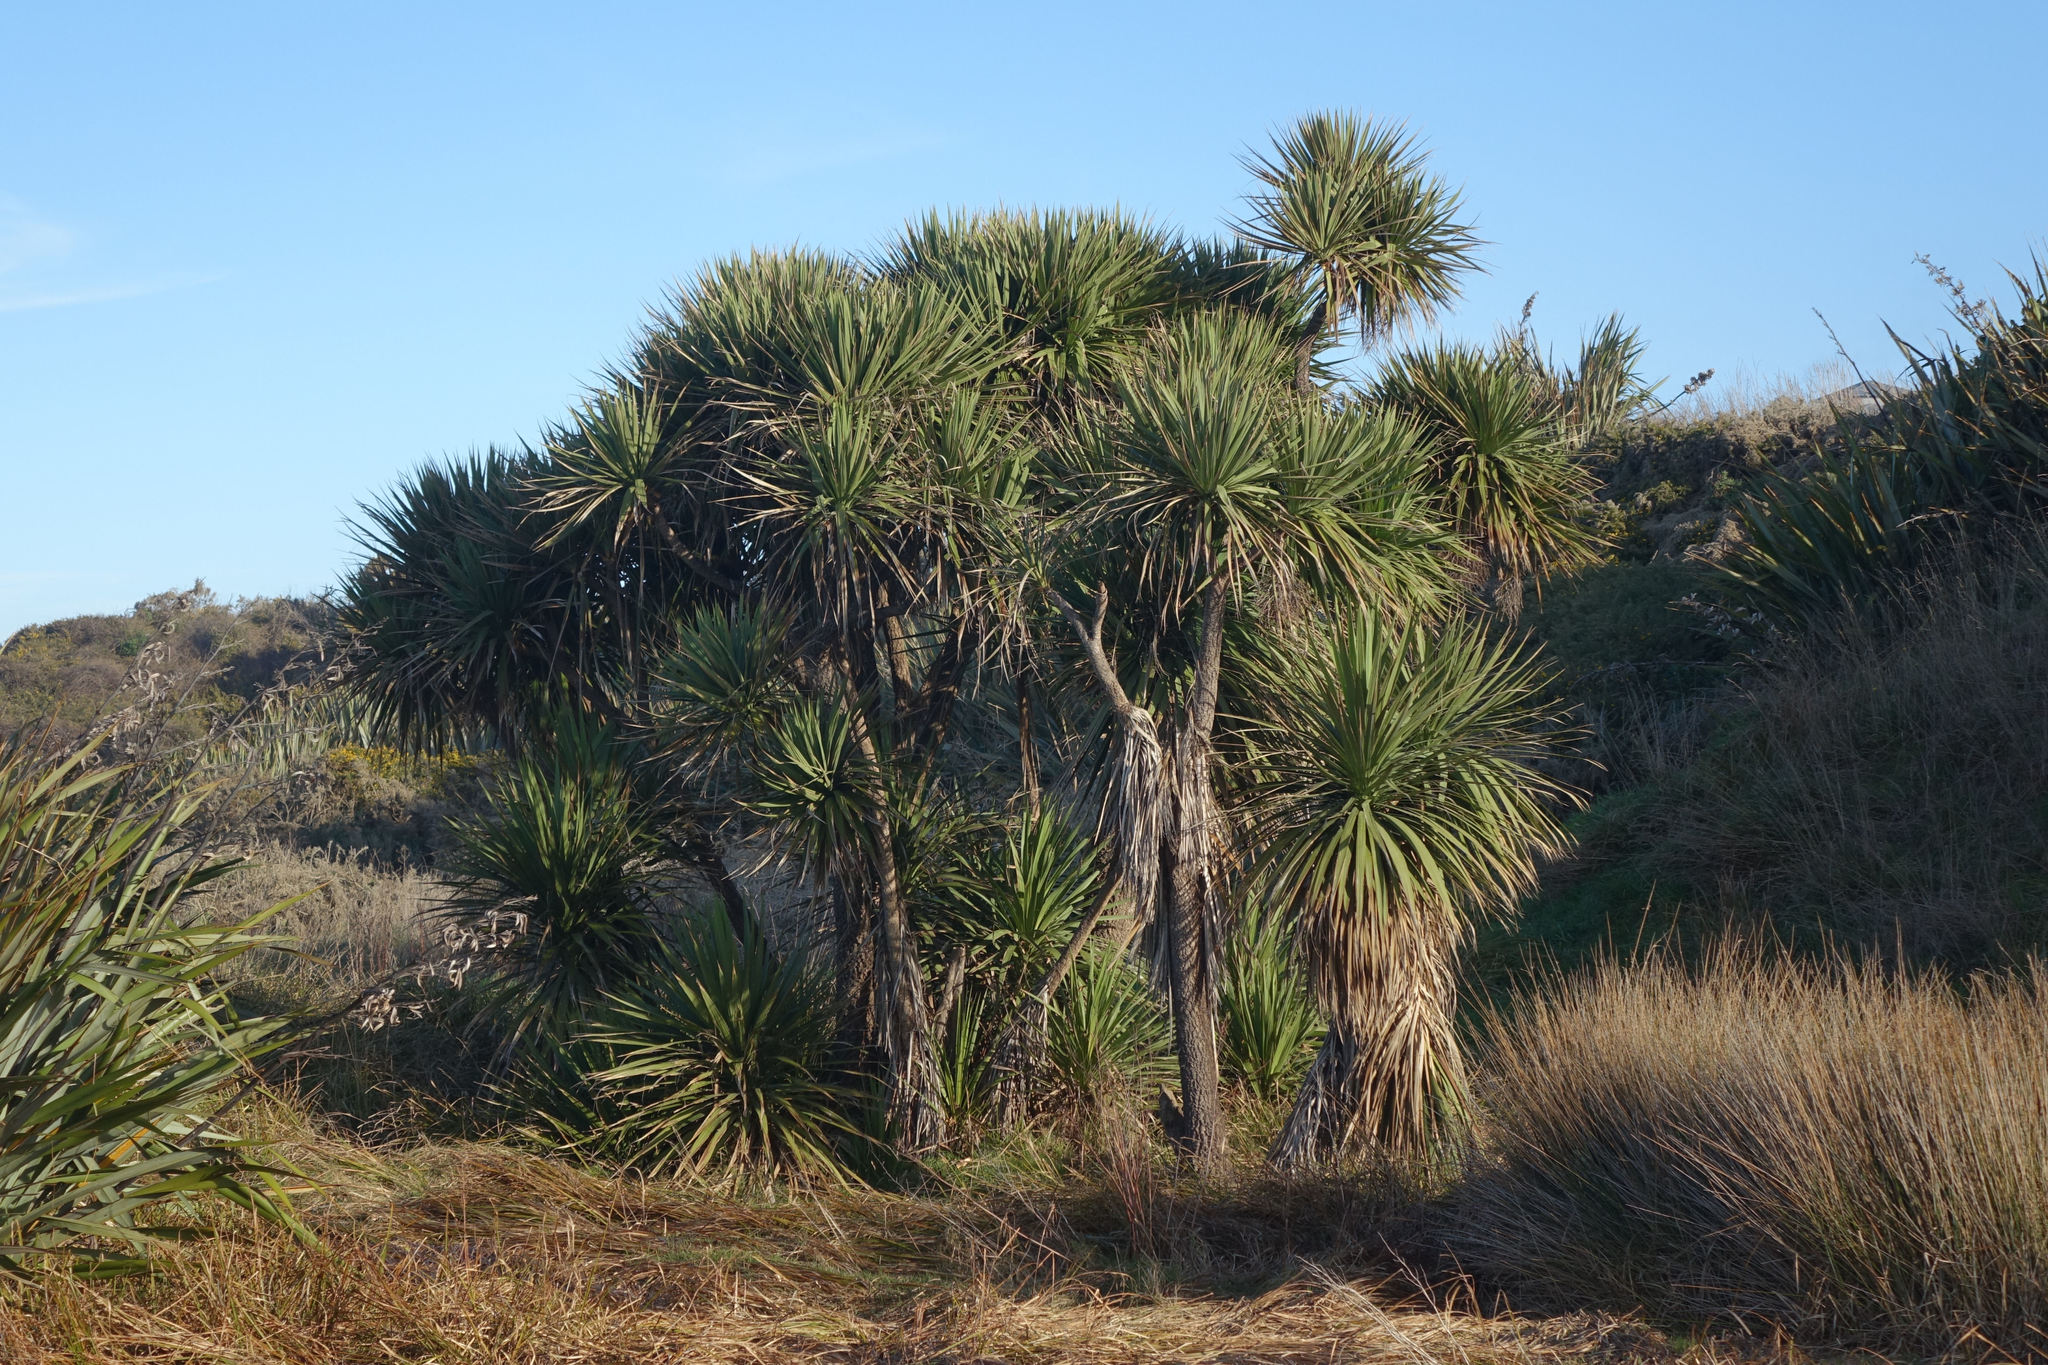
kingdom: Plantae
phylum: Tracheophyta
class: Liliopsida
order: Asparagales
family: Asparagaceae
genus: Cordyline
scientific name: Cordyline australis
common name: Cabbage-palm
